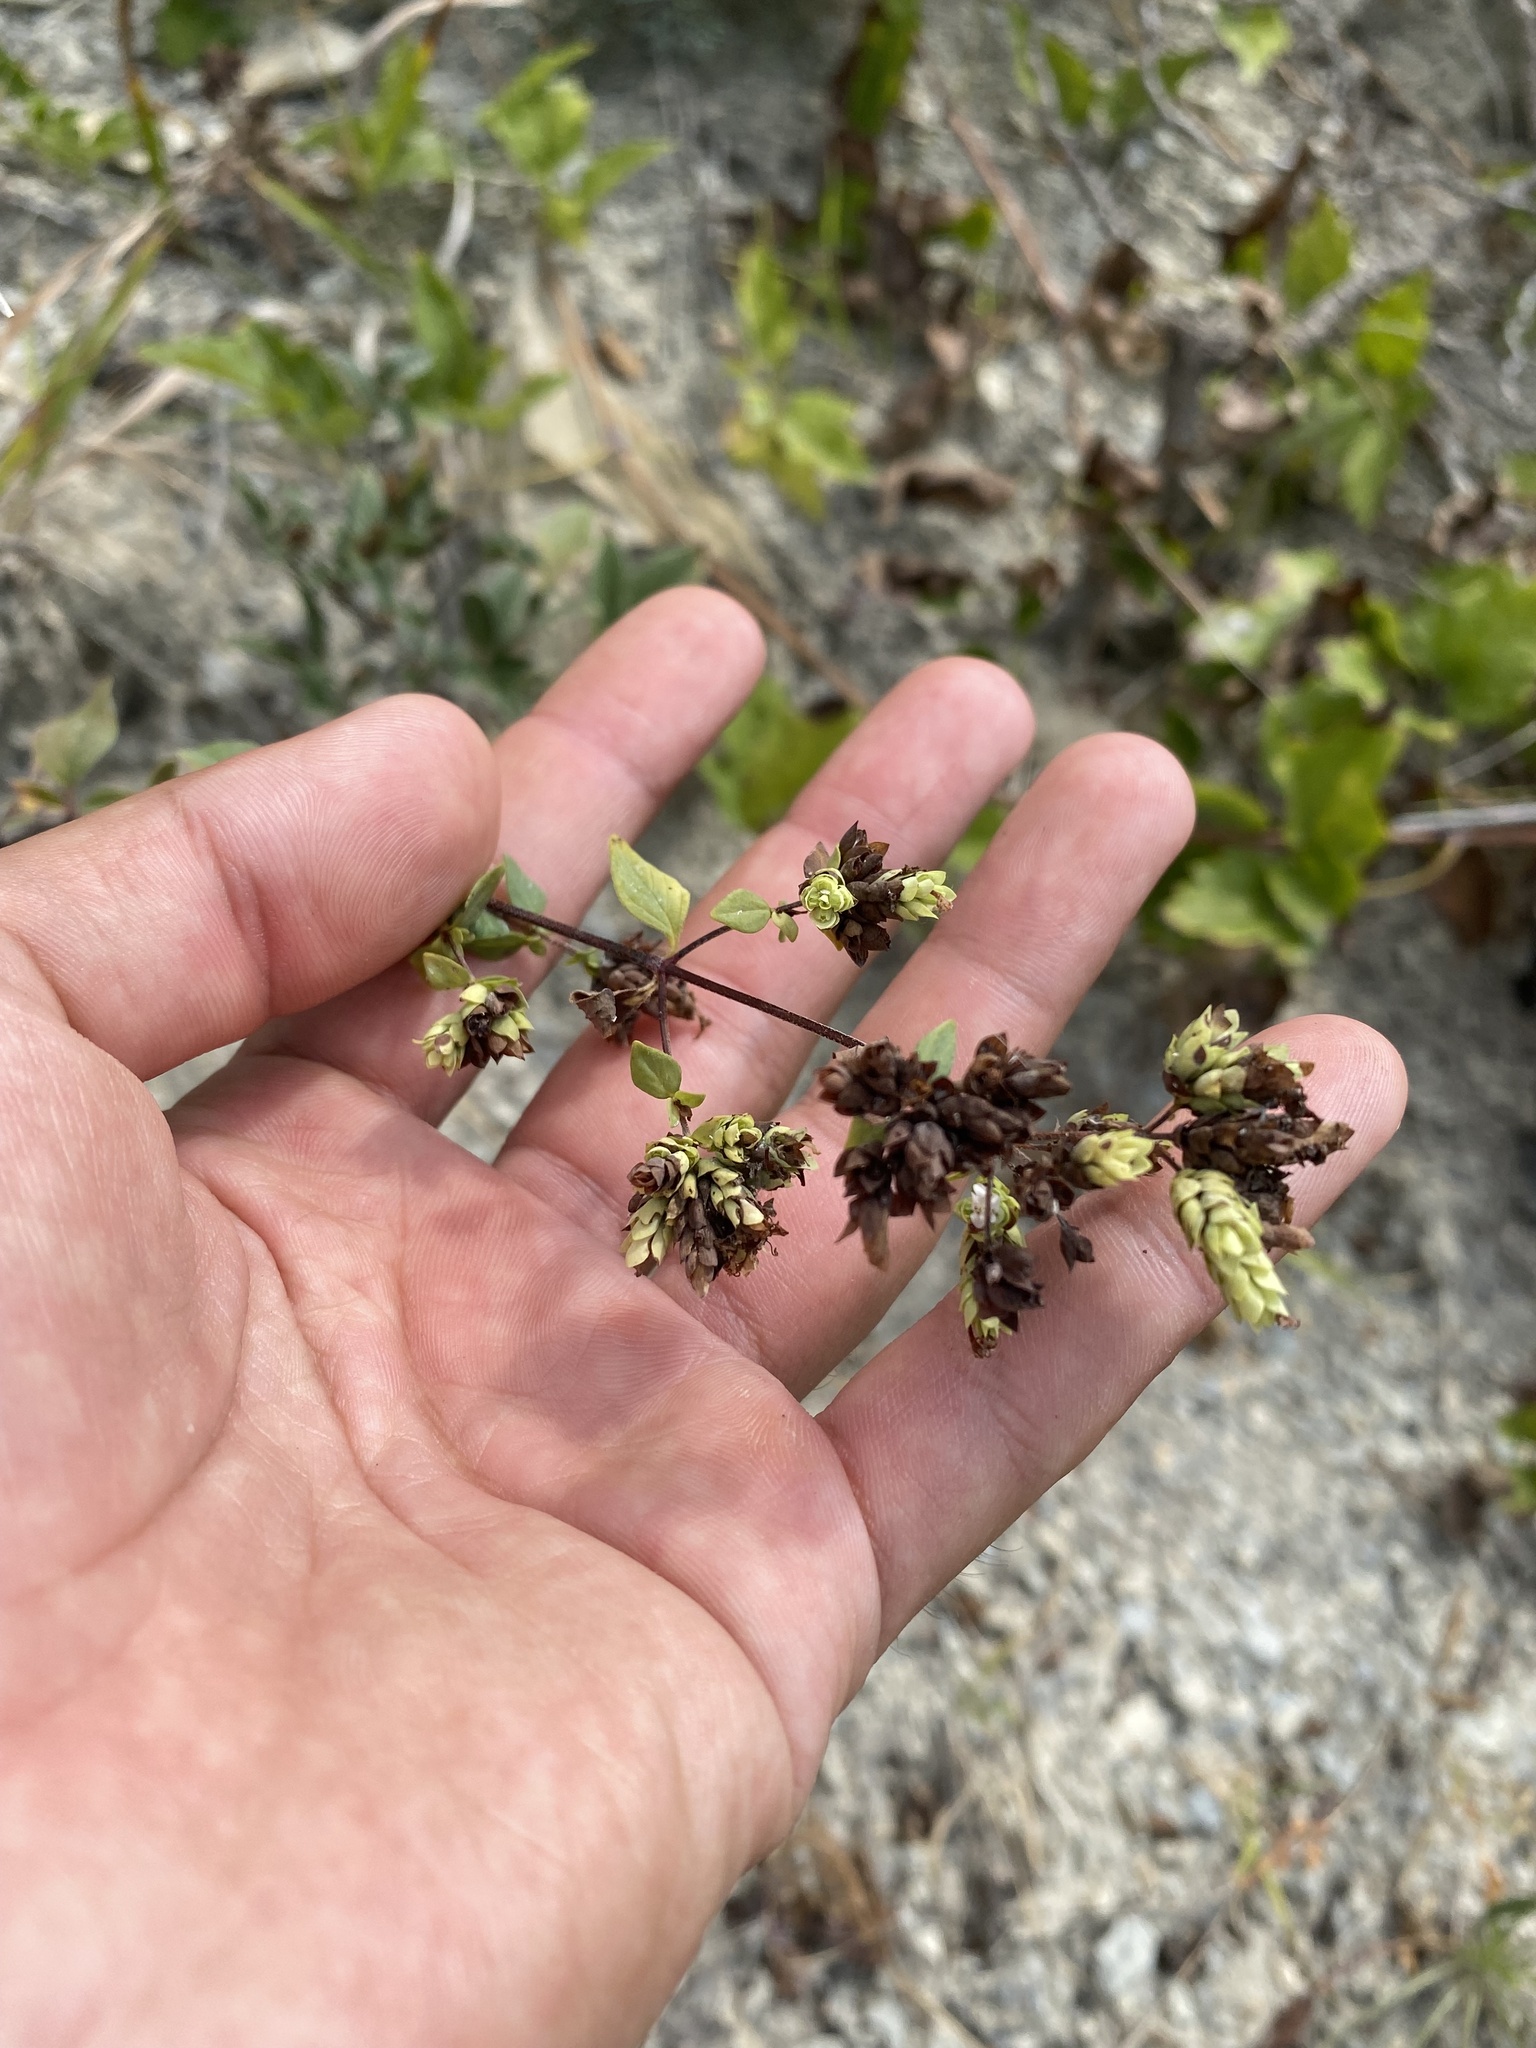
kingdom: Plantae
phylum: Tracheophyta
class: Magnoliopsida
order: Lamiales
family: Lamiaceae
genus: Origanum
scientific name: Origanum vulgare
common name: Wild marjoram
